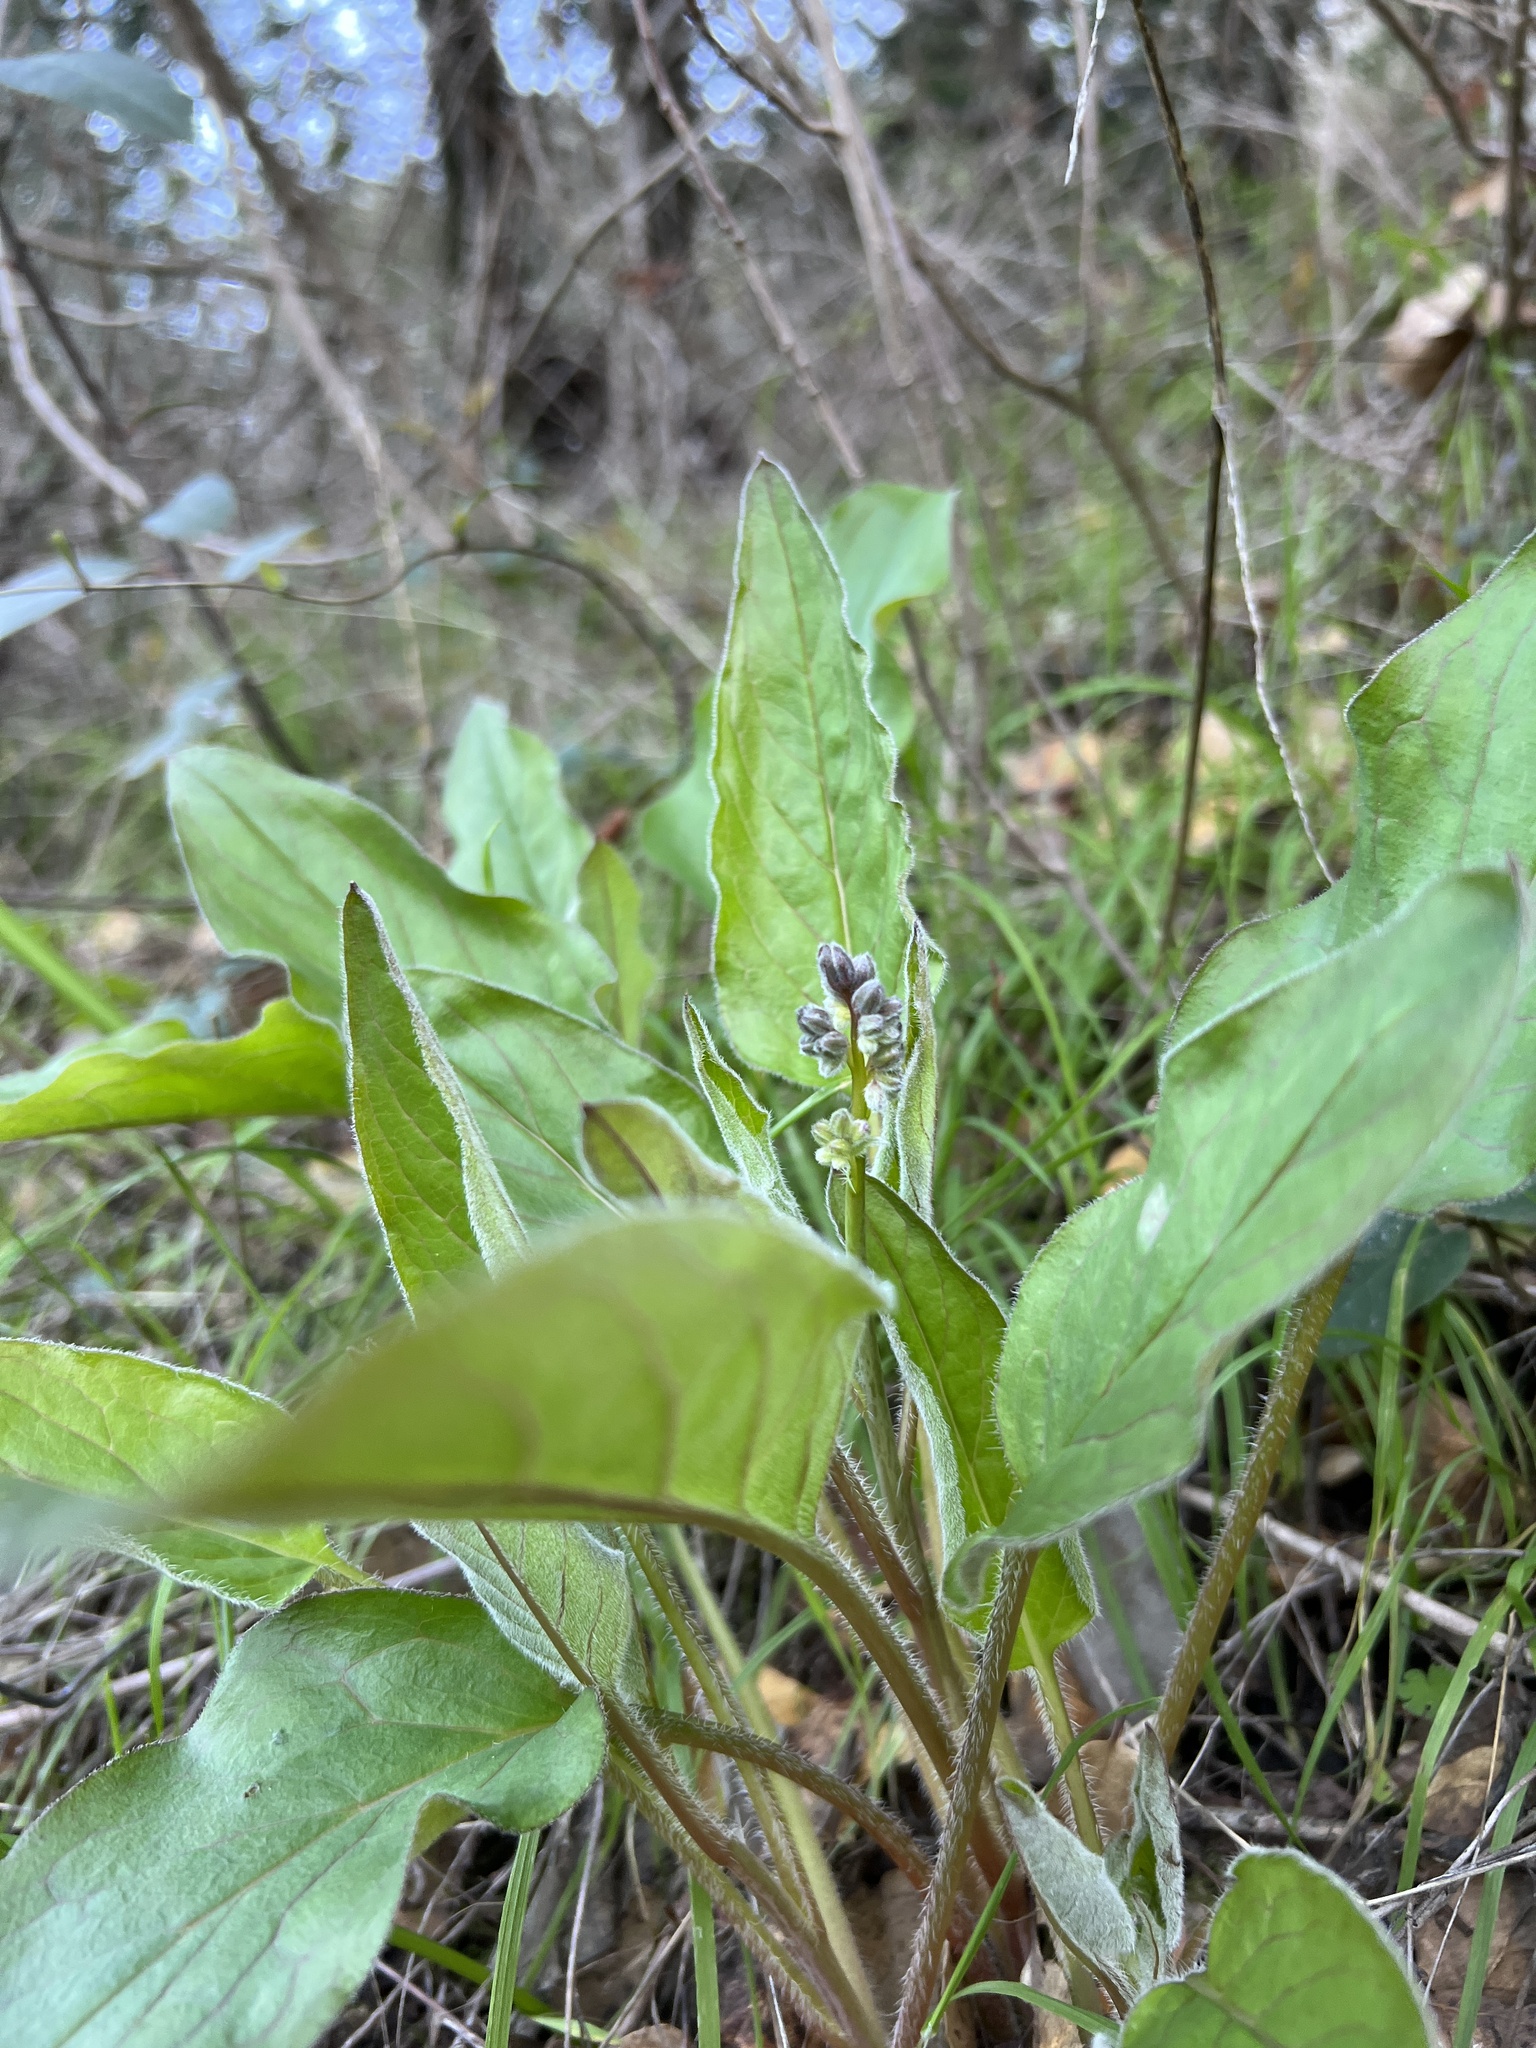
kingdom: Plantae
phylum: Tracheophyta
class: Magnoliopsida
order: Boraginales
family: Boraginaceae
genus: Adelinia
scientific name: Adelinia grande
